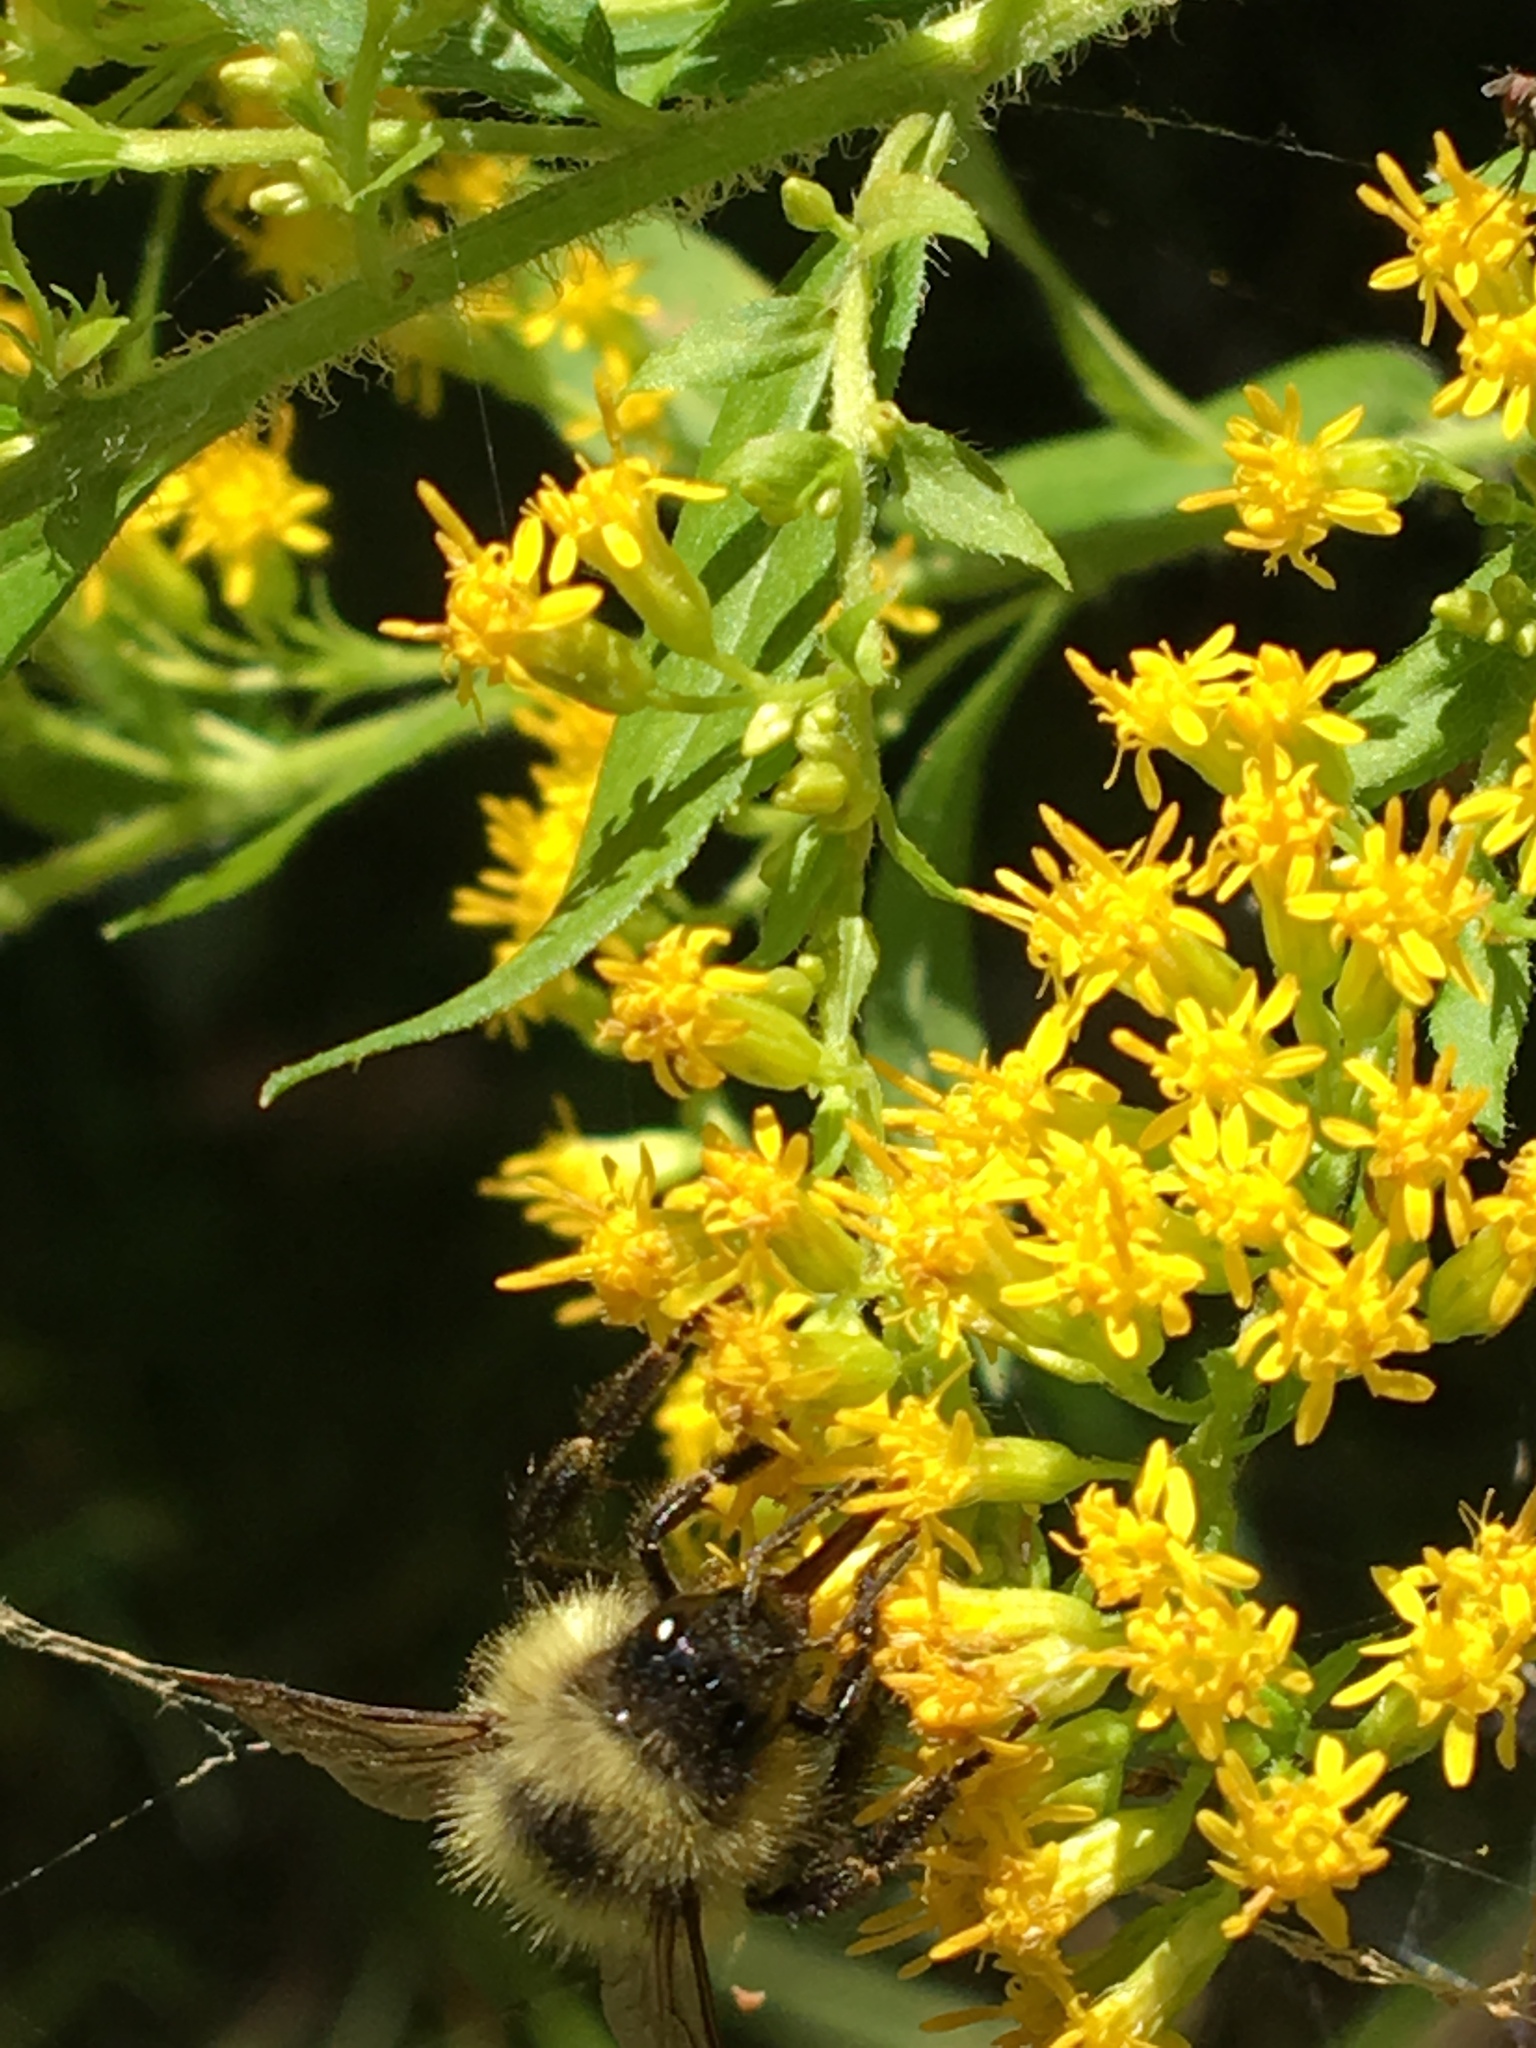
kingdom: Animalia
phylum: Arthropoda
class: Insecta
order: Hymenoptera
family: Apidae
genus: Pyrobombus
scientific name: Pyrobombus
